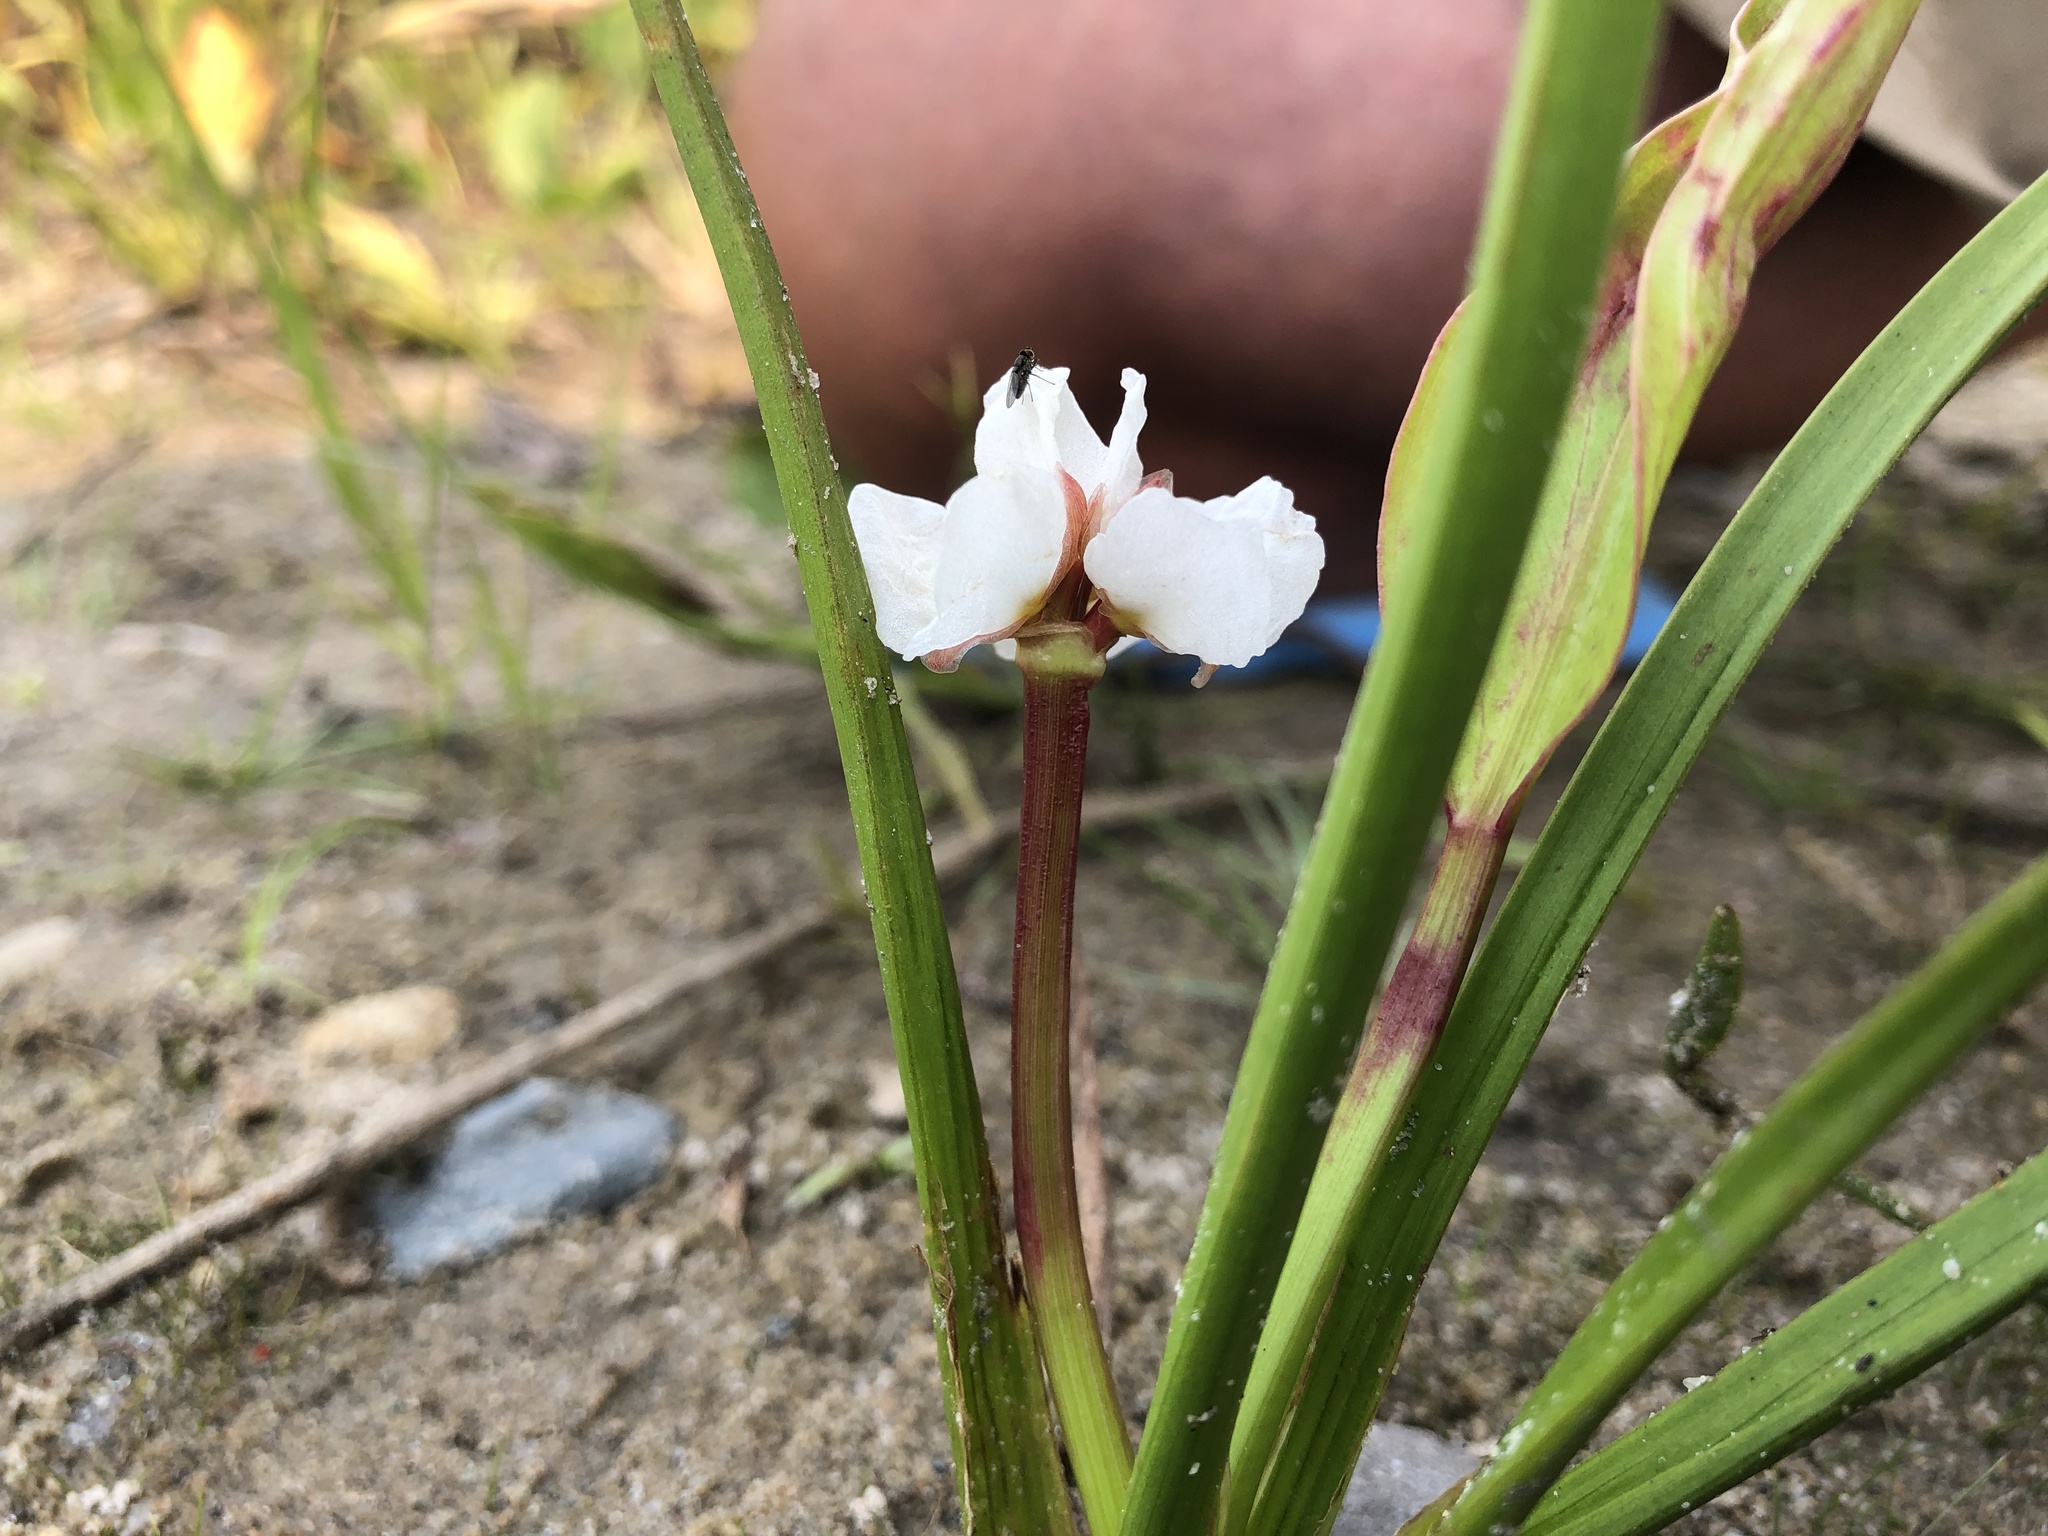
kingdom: Plantae
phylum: Tracheophyta
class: Liliopsida
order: Alismatales
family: Alismataceae
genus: Sagittaria
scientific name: Sagittaria rigida
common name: Canadian arrowhead
